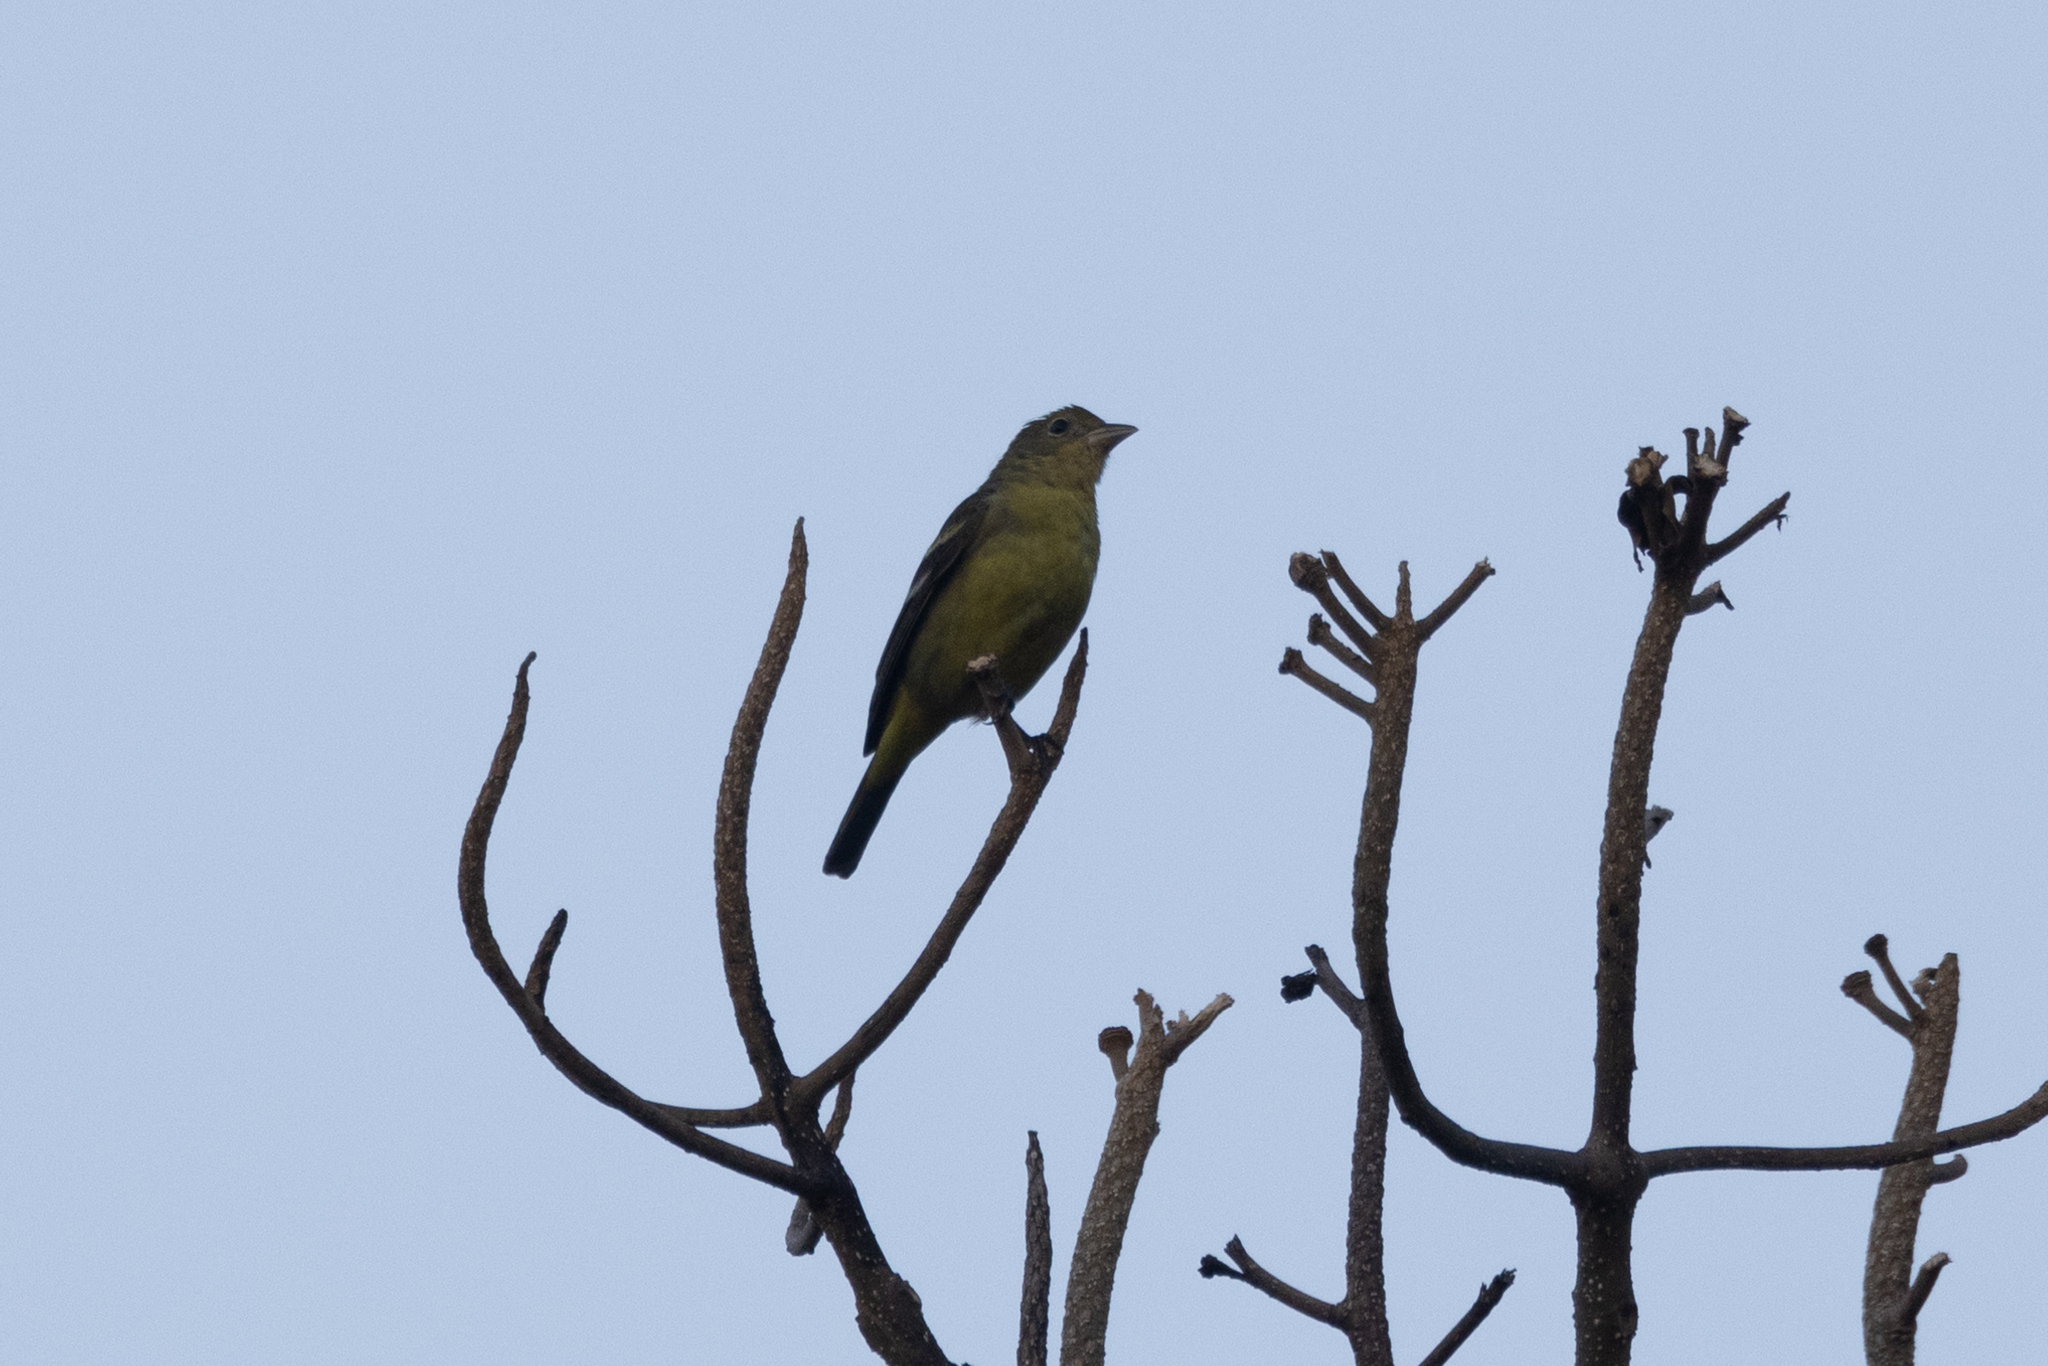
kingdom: Animalia
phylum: Chordata
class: Aves
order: Passeriformes
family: Cardinalidae
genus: Piranga
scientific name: Piranga ludoviciana
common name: Western tanager
